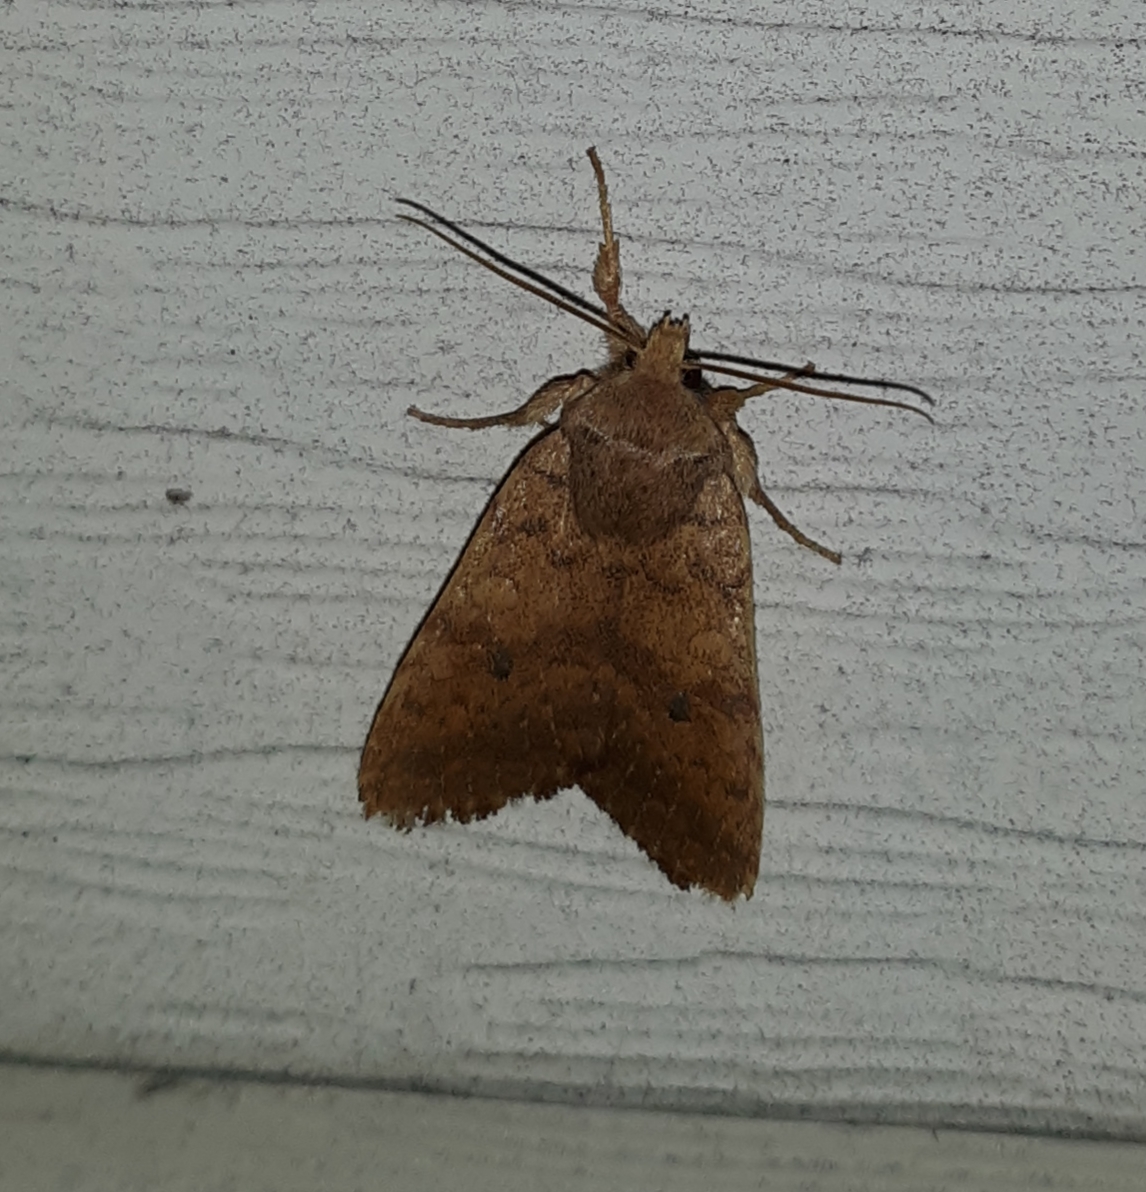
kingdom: Animalia
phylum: Arthropoda
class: Insecta
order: Lepidoptera
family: Noctuidae
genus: Agrochola
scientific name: Agrochola bicolorago
